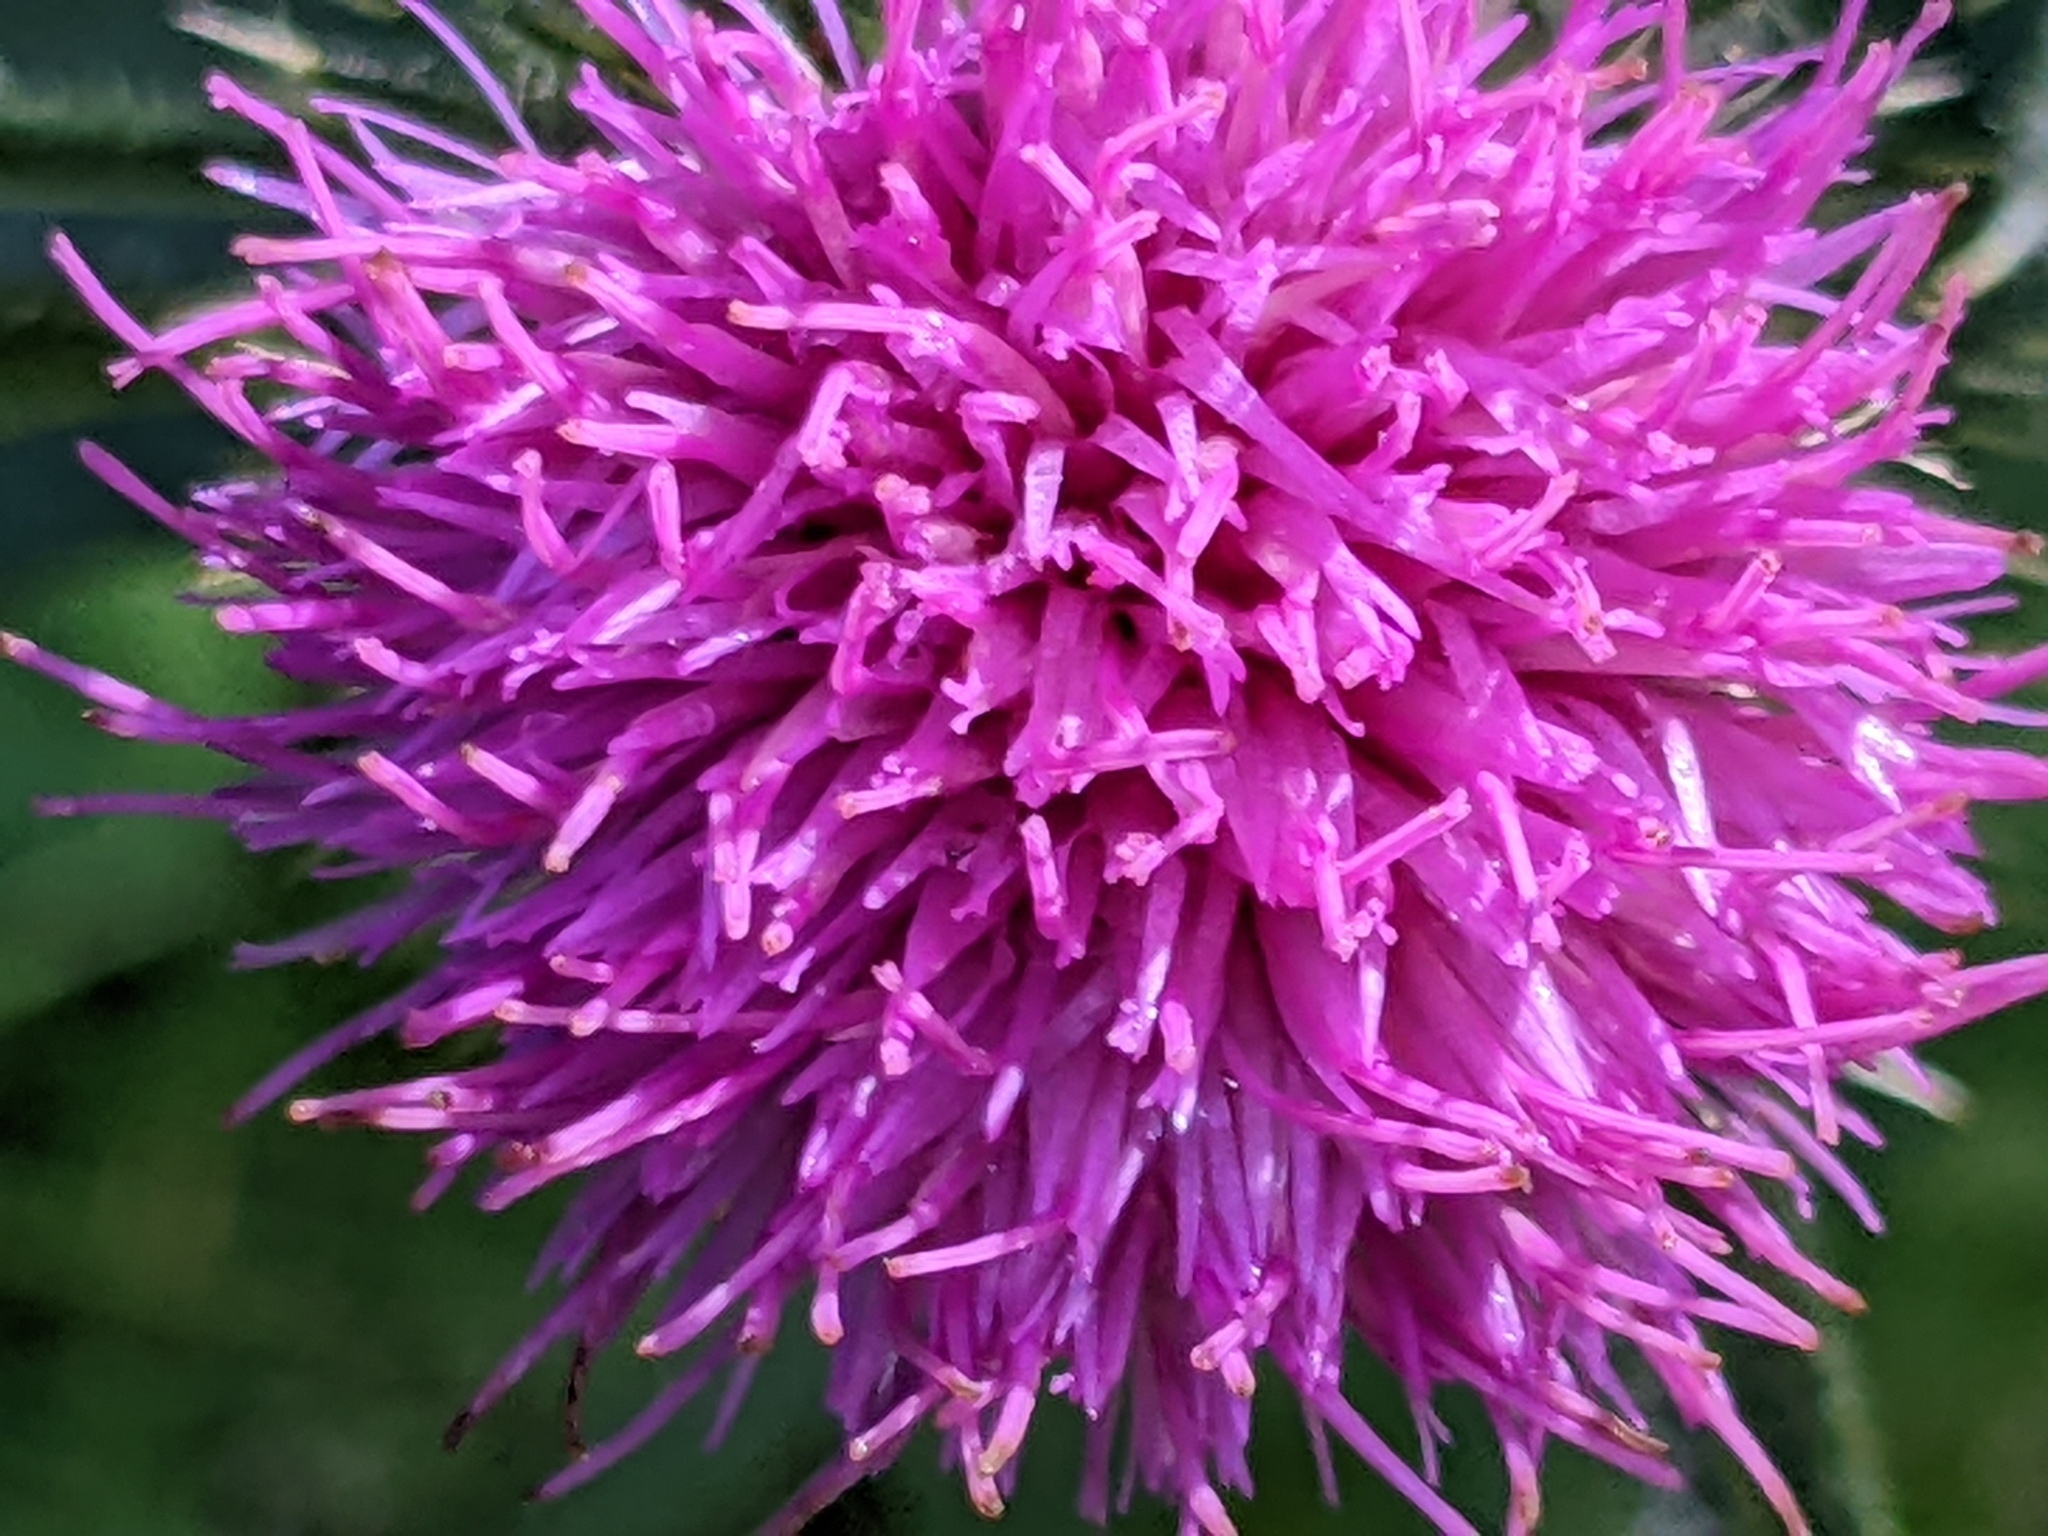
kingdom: Plantae
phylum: Tracheophyta
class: Magnoliopsida
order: Asterales
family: Asteraceae
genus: Cirsium
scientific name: Cirsium vulgare
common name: Bull thistle
